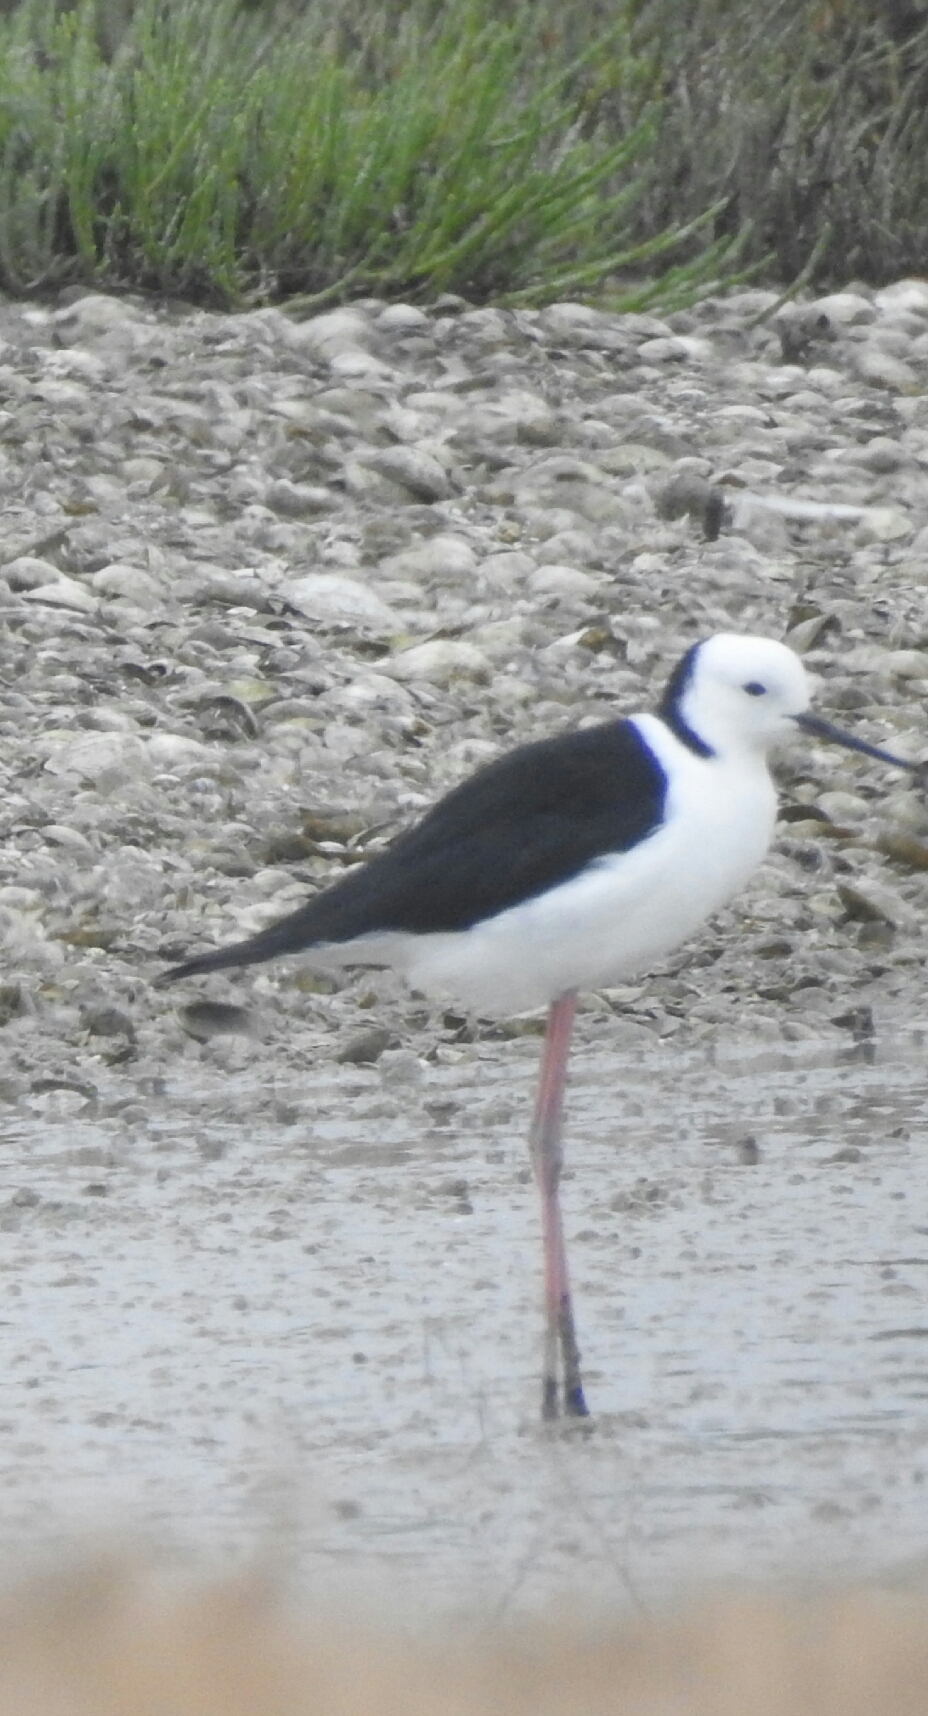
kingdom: Animalia
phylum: Chordata
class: Aves
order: Charadriiformes
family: Recurvirostridae
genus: Himantopus
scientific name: Himantopus leucocephalus
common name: White-headed stilt
